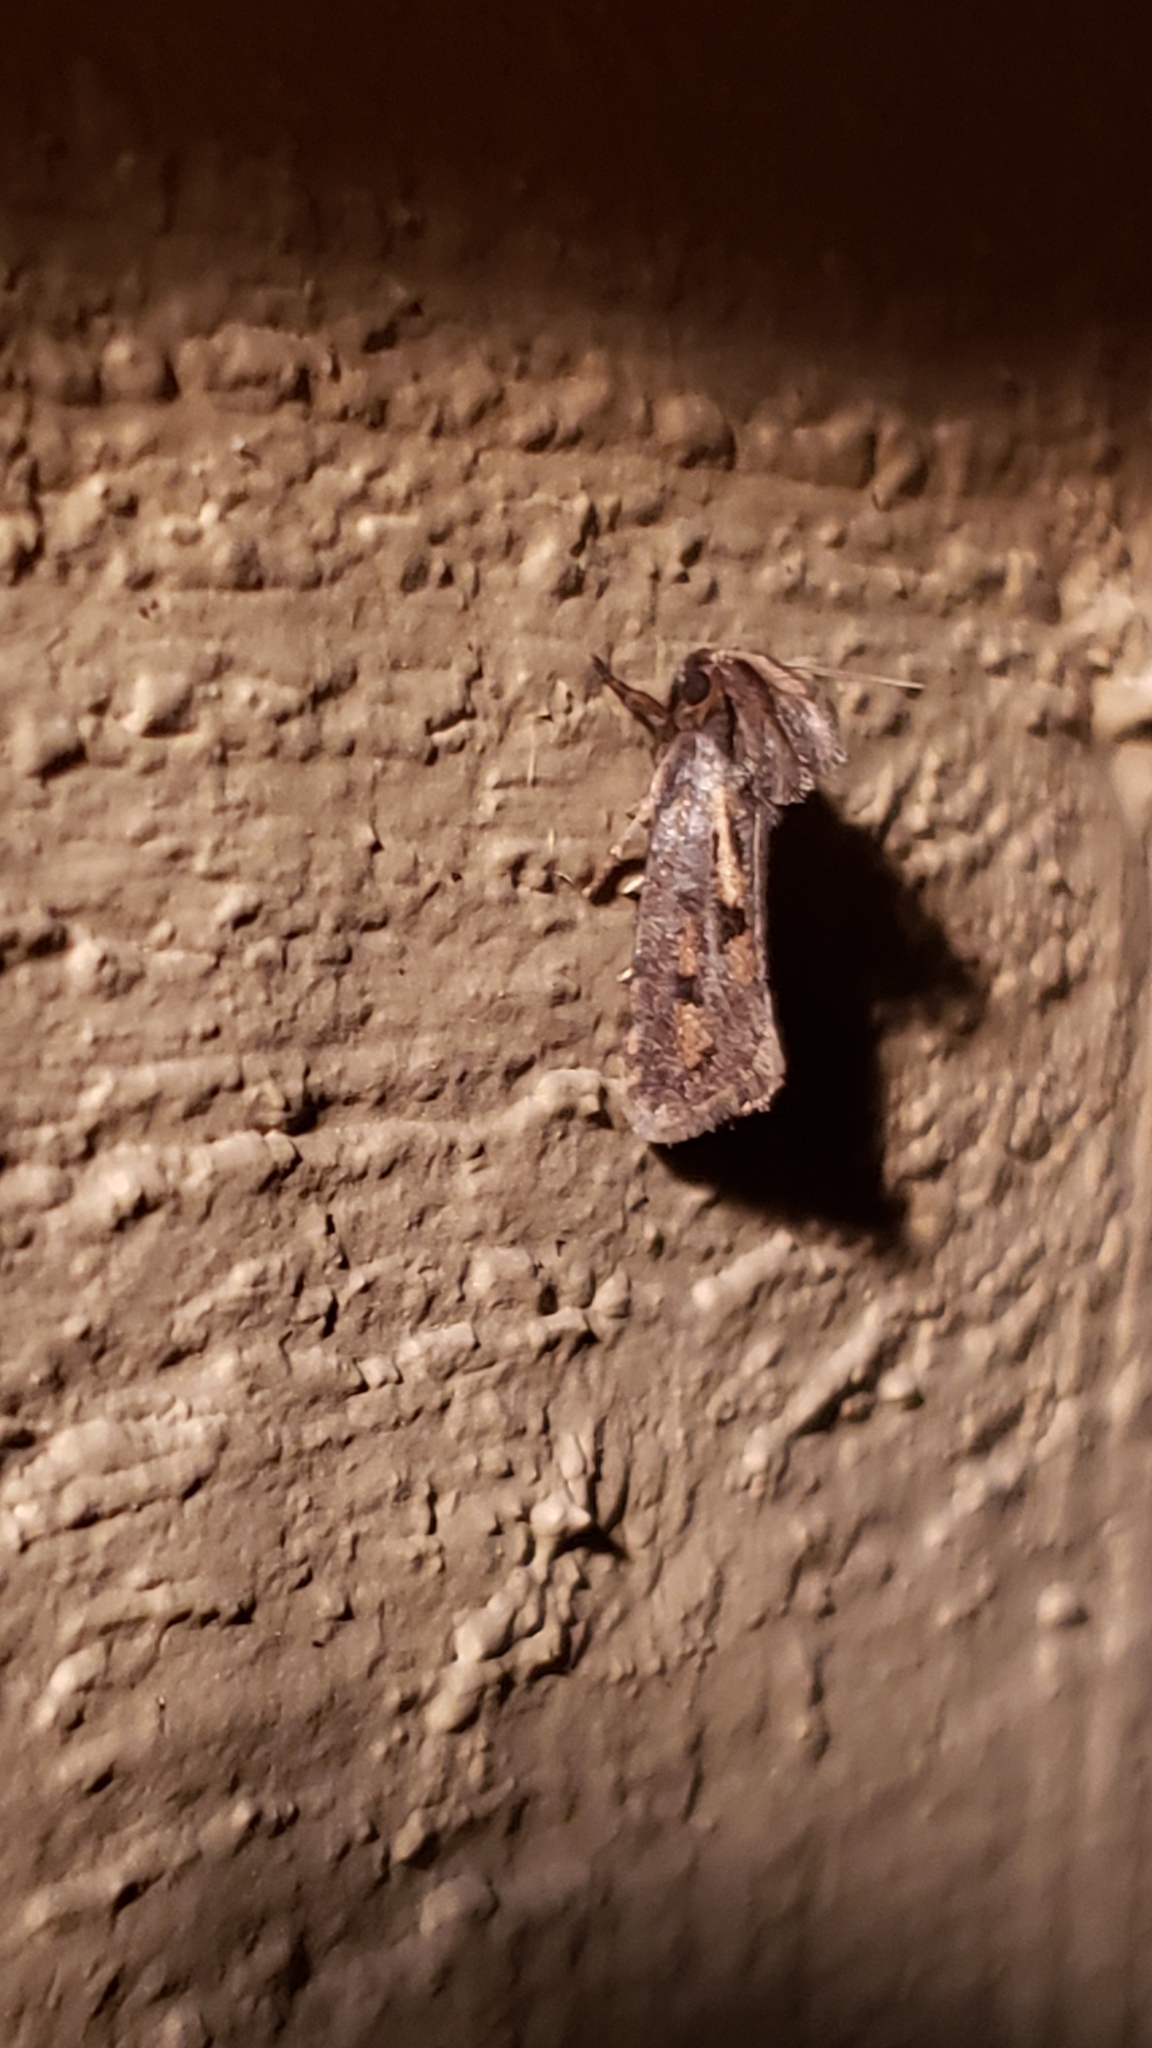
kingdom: Animalia
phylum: Arthropoda
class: Insecta
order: Lepidoptera
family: Tineidae
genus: Acrolophus
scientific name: Acrolophus popeanella
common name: Clemens' grass tubeworm moth
